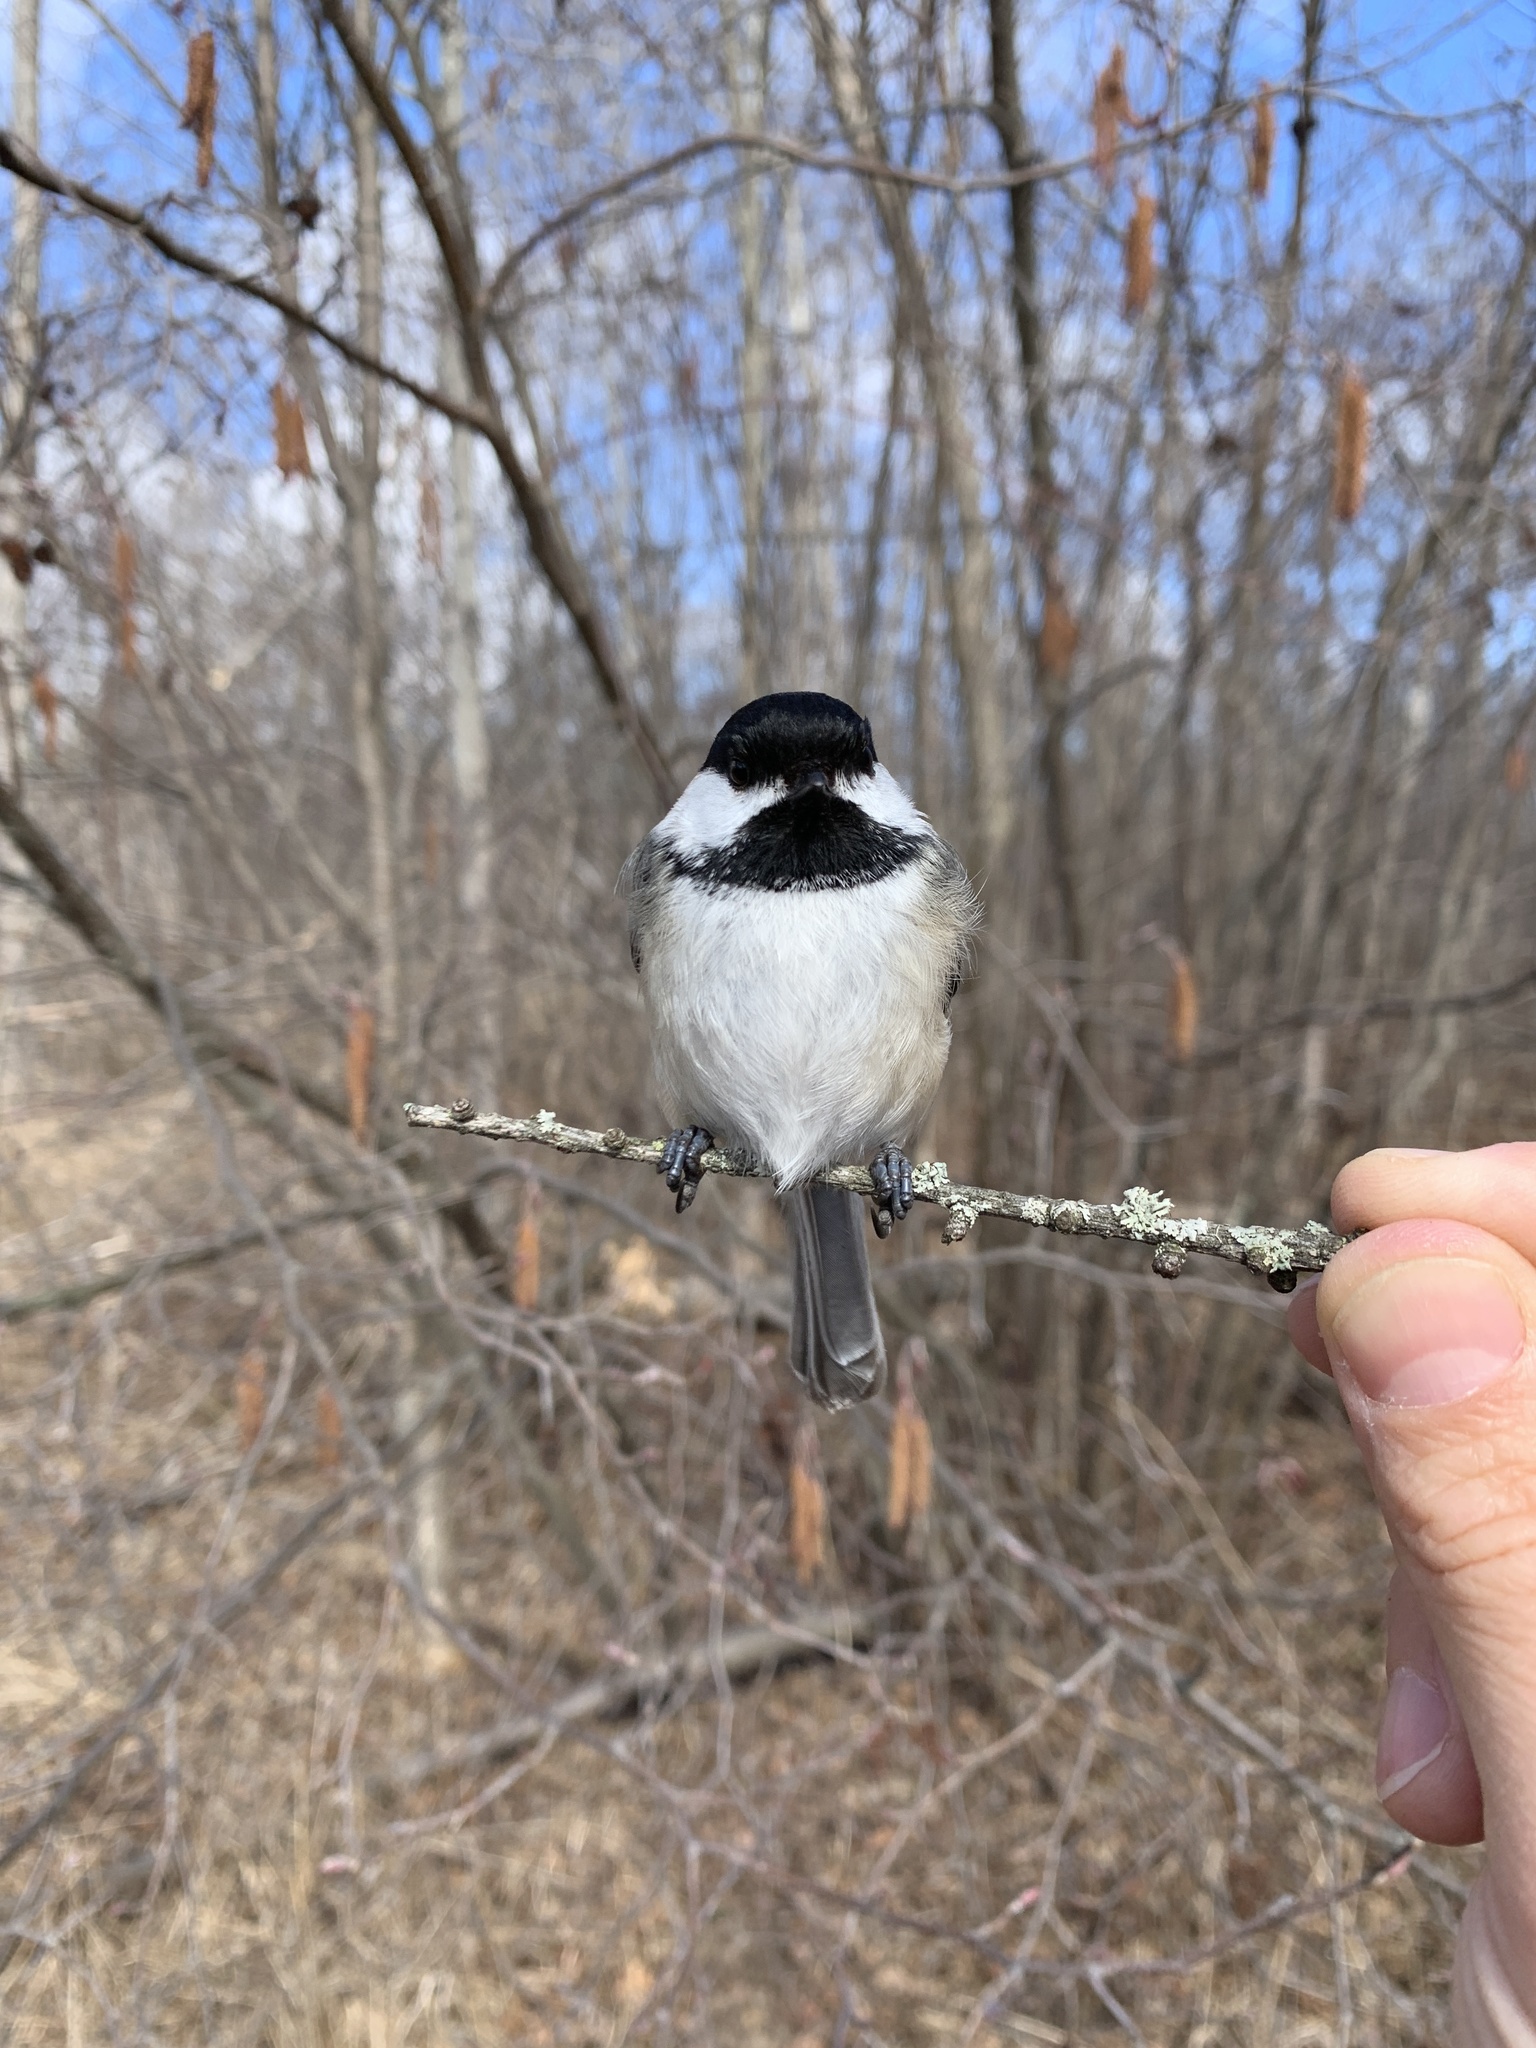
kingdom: Animalia
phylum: Chordata
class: Aves
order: Passeriformes
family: Paridae
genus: Poecile
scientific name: Poecile atricapillus
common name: Black-capped chickadee
